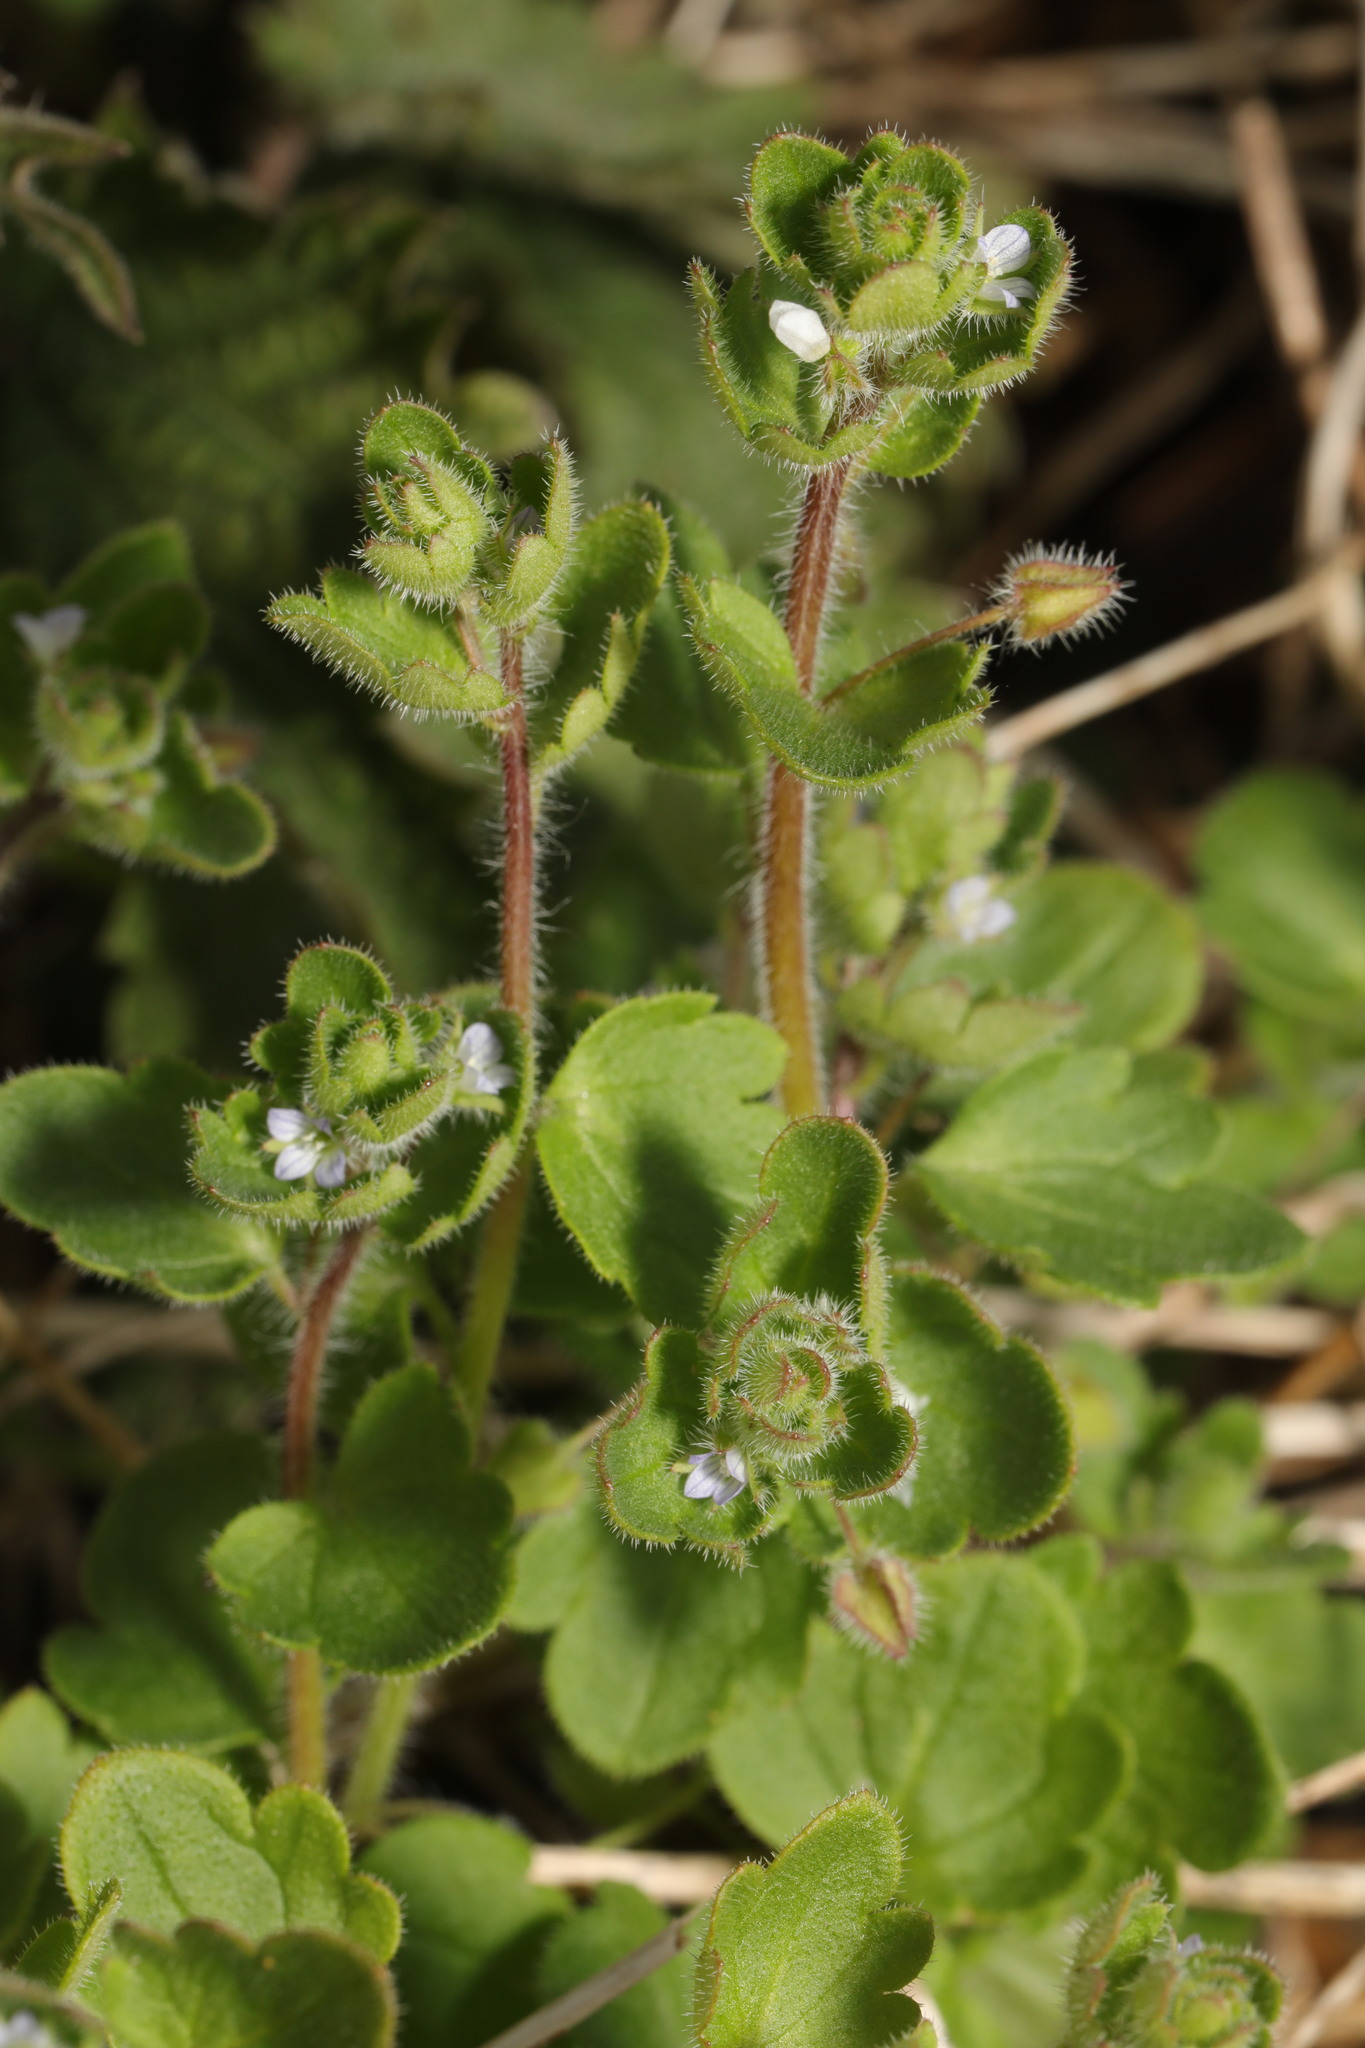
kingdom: Plantae
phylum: Tracheophyta
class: Magnoliopsida
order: Lamiales
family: Plantaginaceae
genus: Veronica
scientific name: Veronica sublobata
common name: False ivy-leaved speedwell
